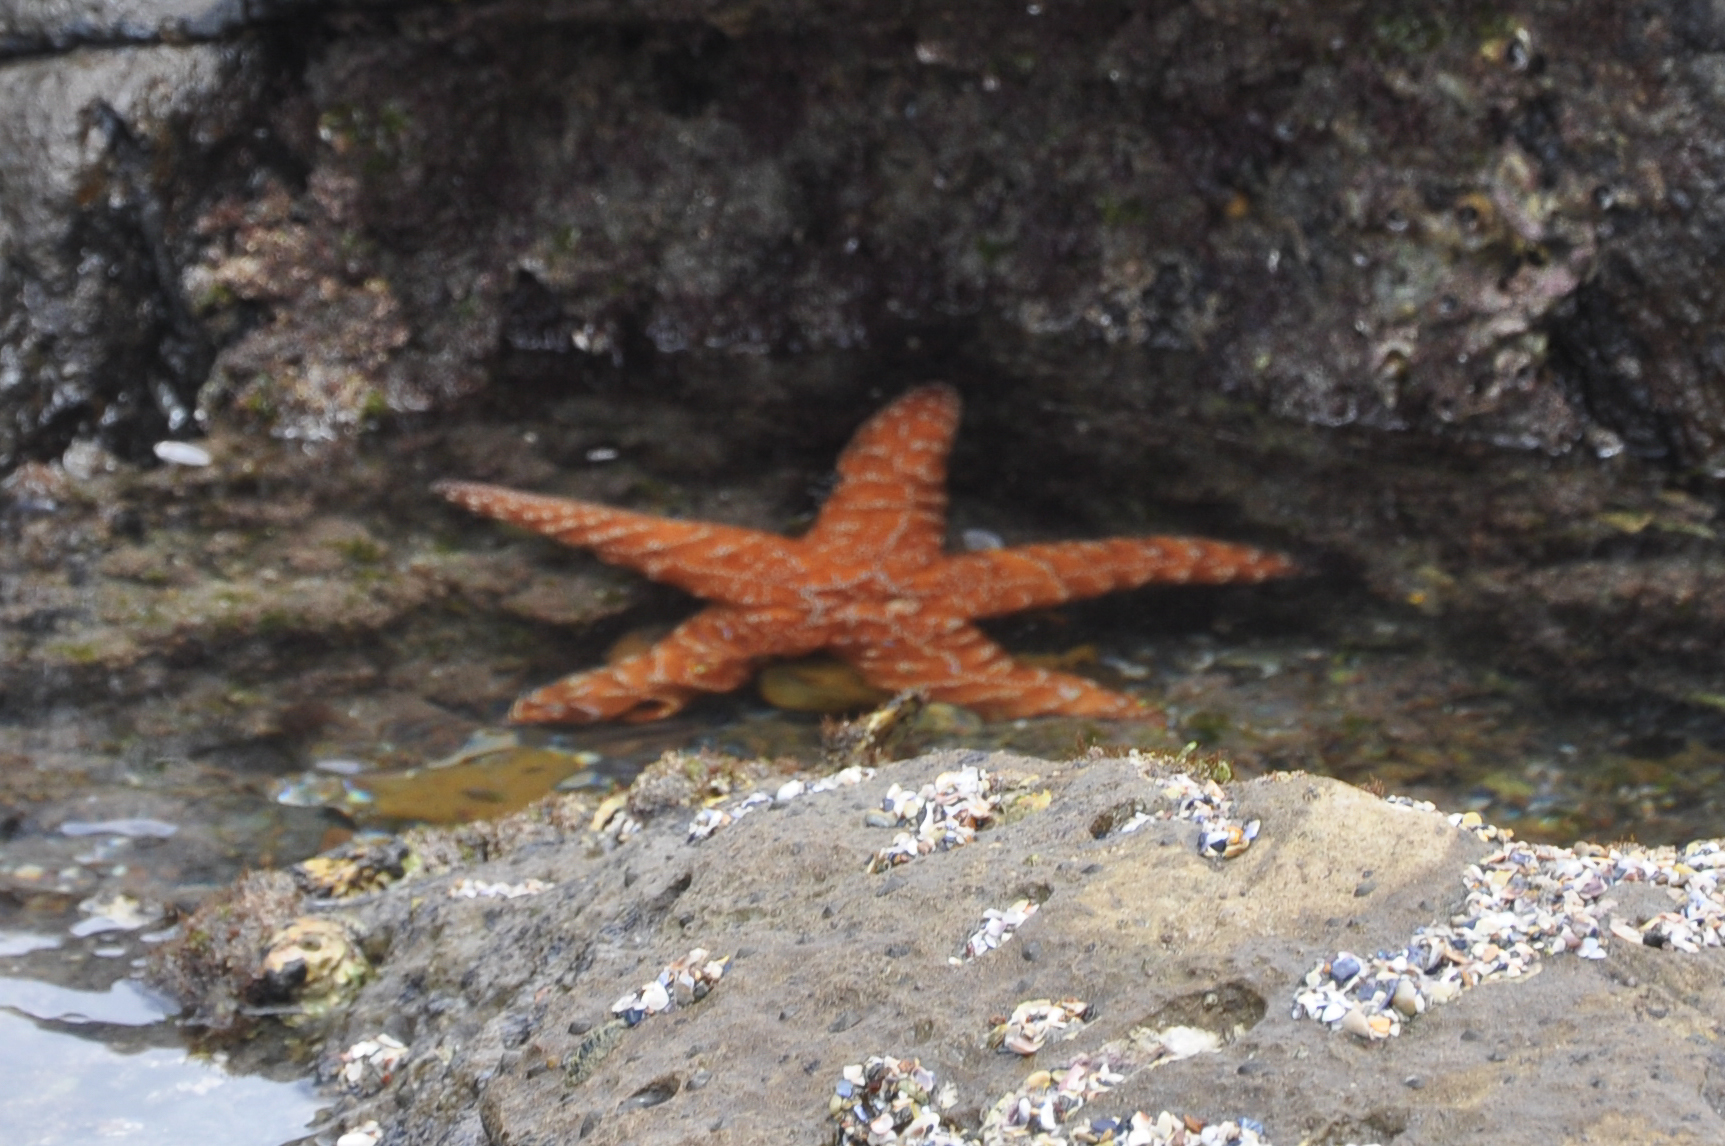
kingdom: Animalia
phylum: Echinodermata
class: Asteroidea
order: Forcipulatida
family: Asteriidae
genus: Pisaster
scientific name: Pisaster ochraceus
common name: Ochre stars
